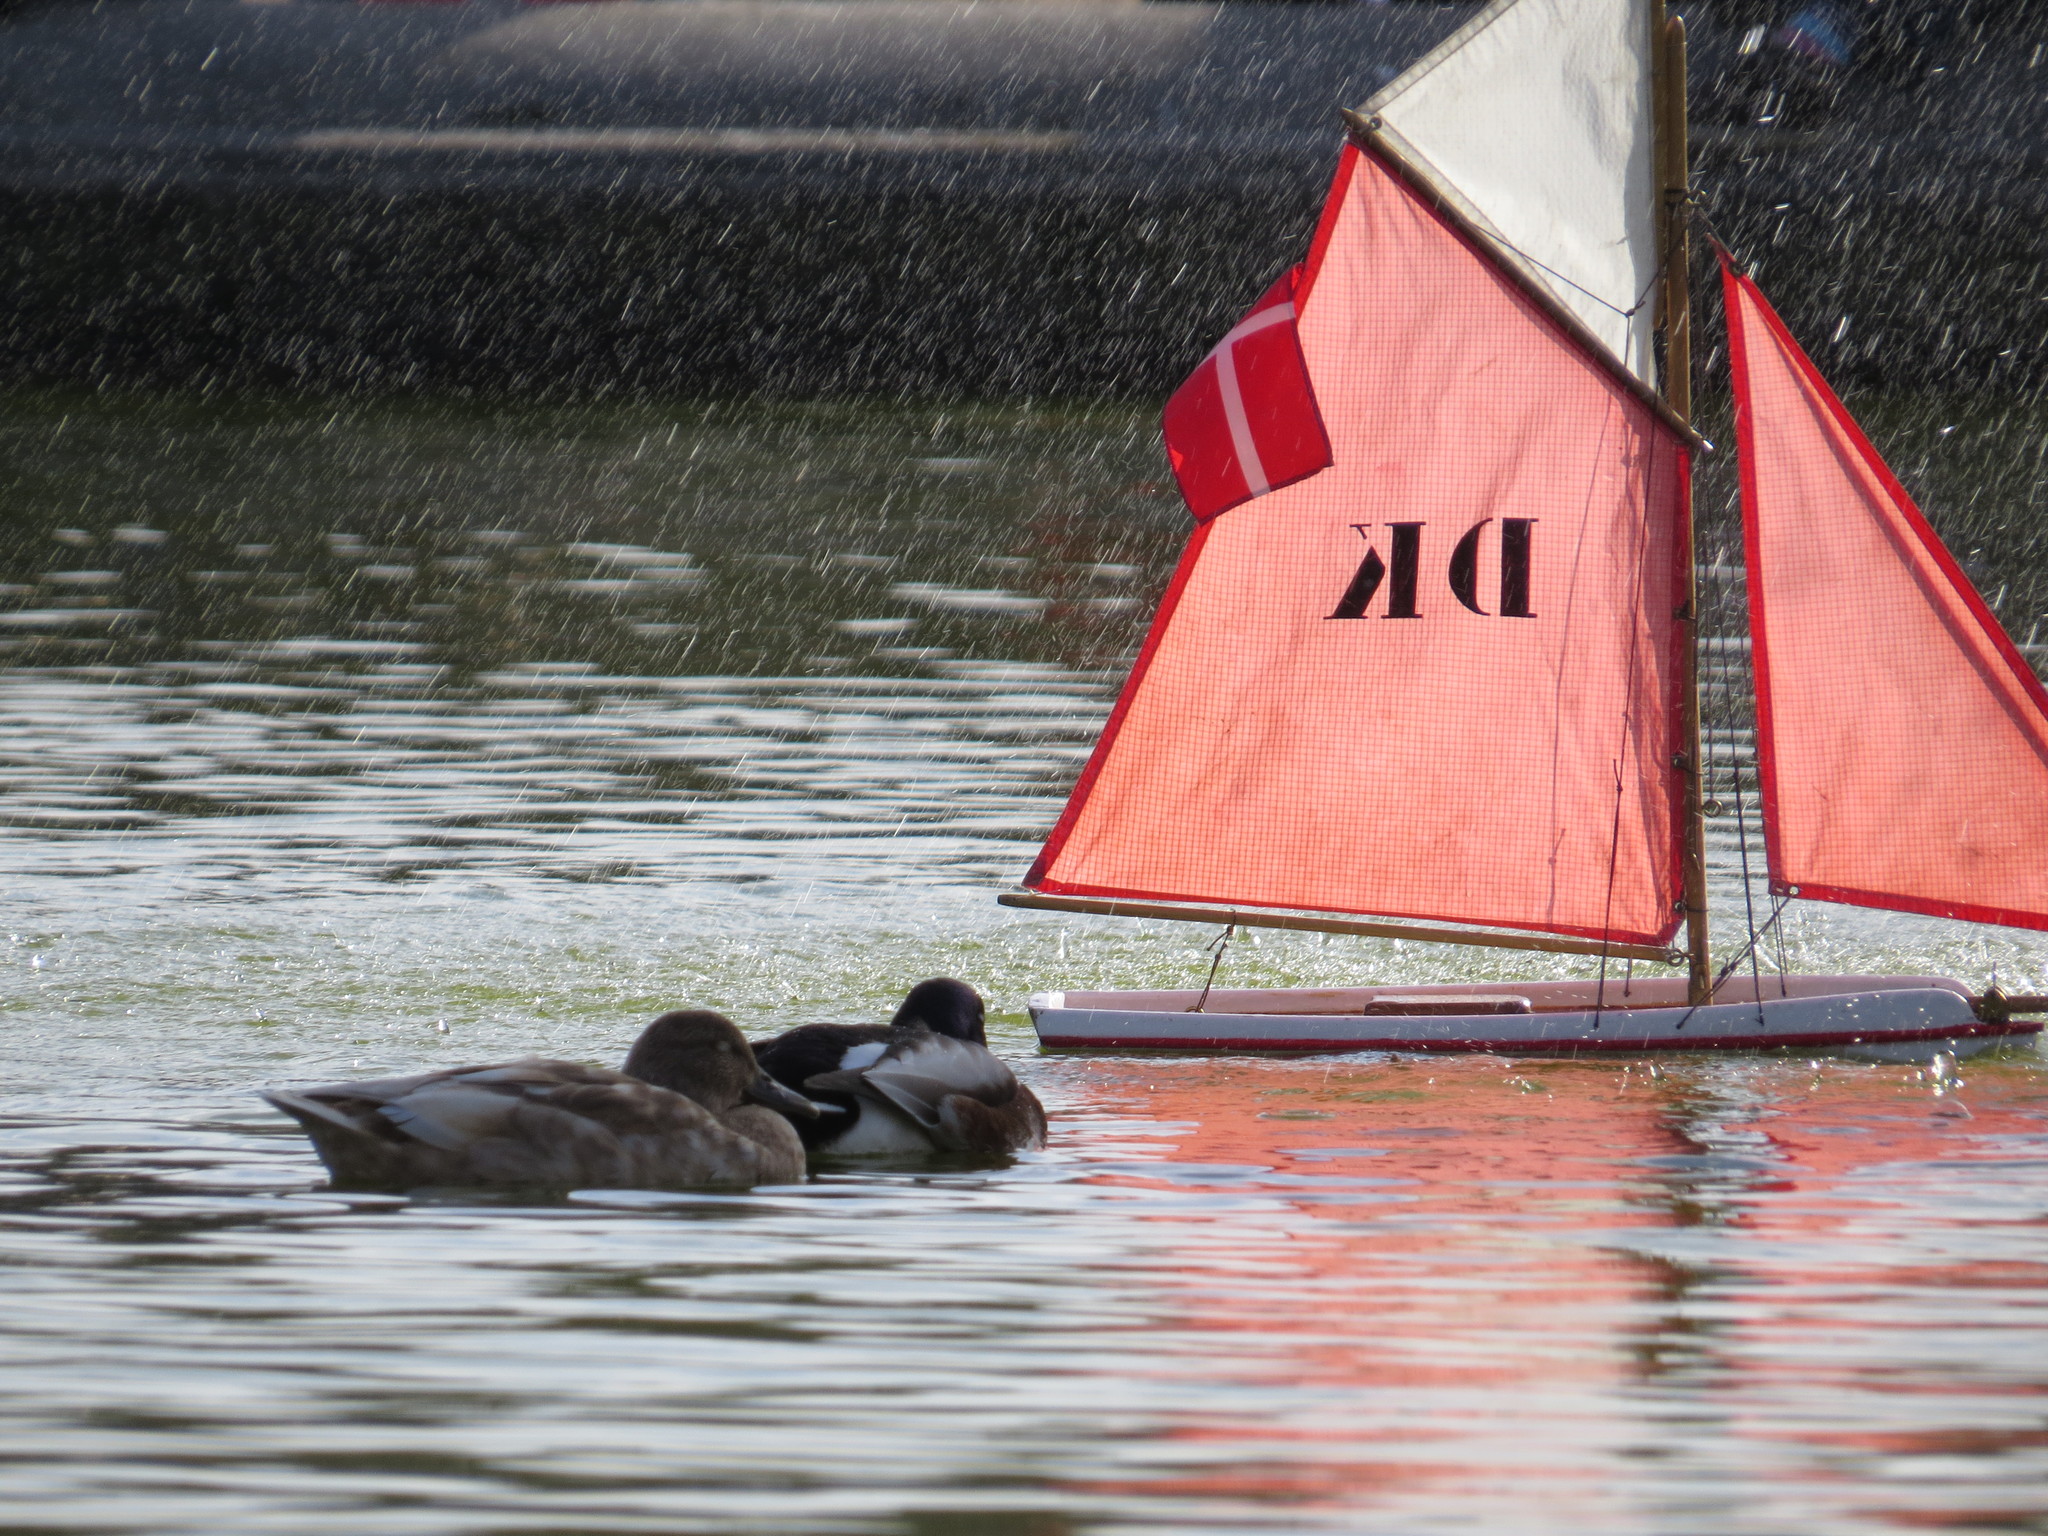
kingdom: Animalia
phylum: Chordata
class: Aves
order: Anseriformes
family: Anatidae
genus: Anas
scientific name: Anas platyrhynchos
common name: Mallard
